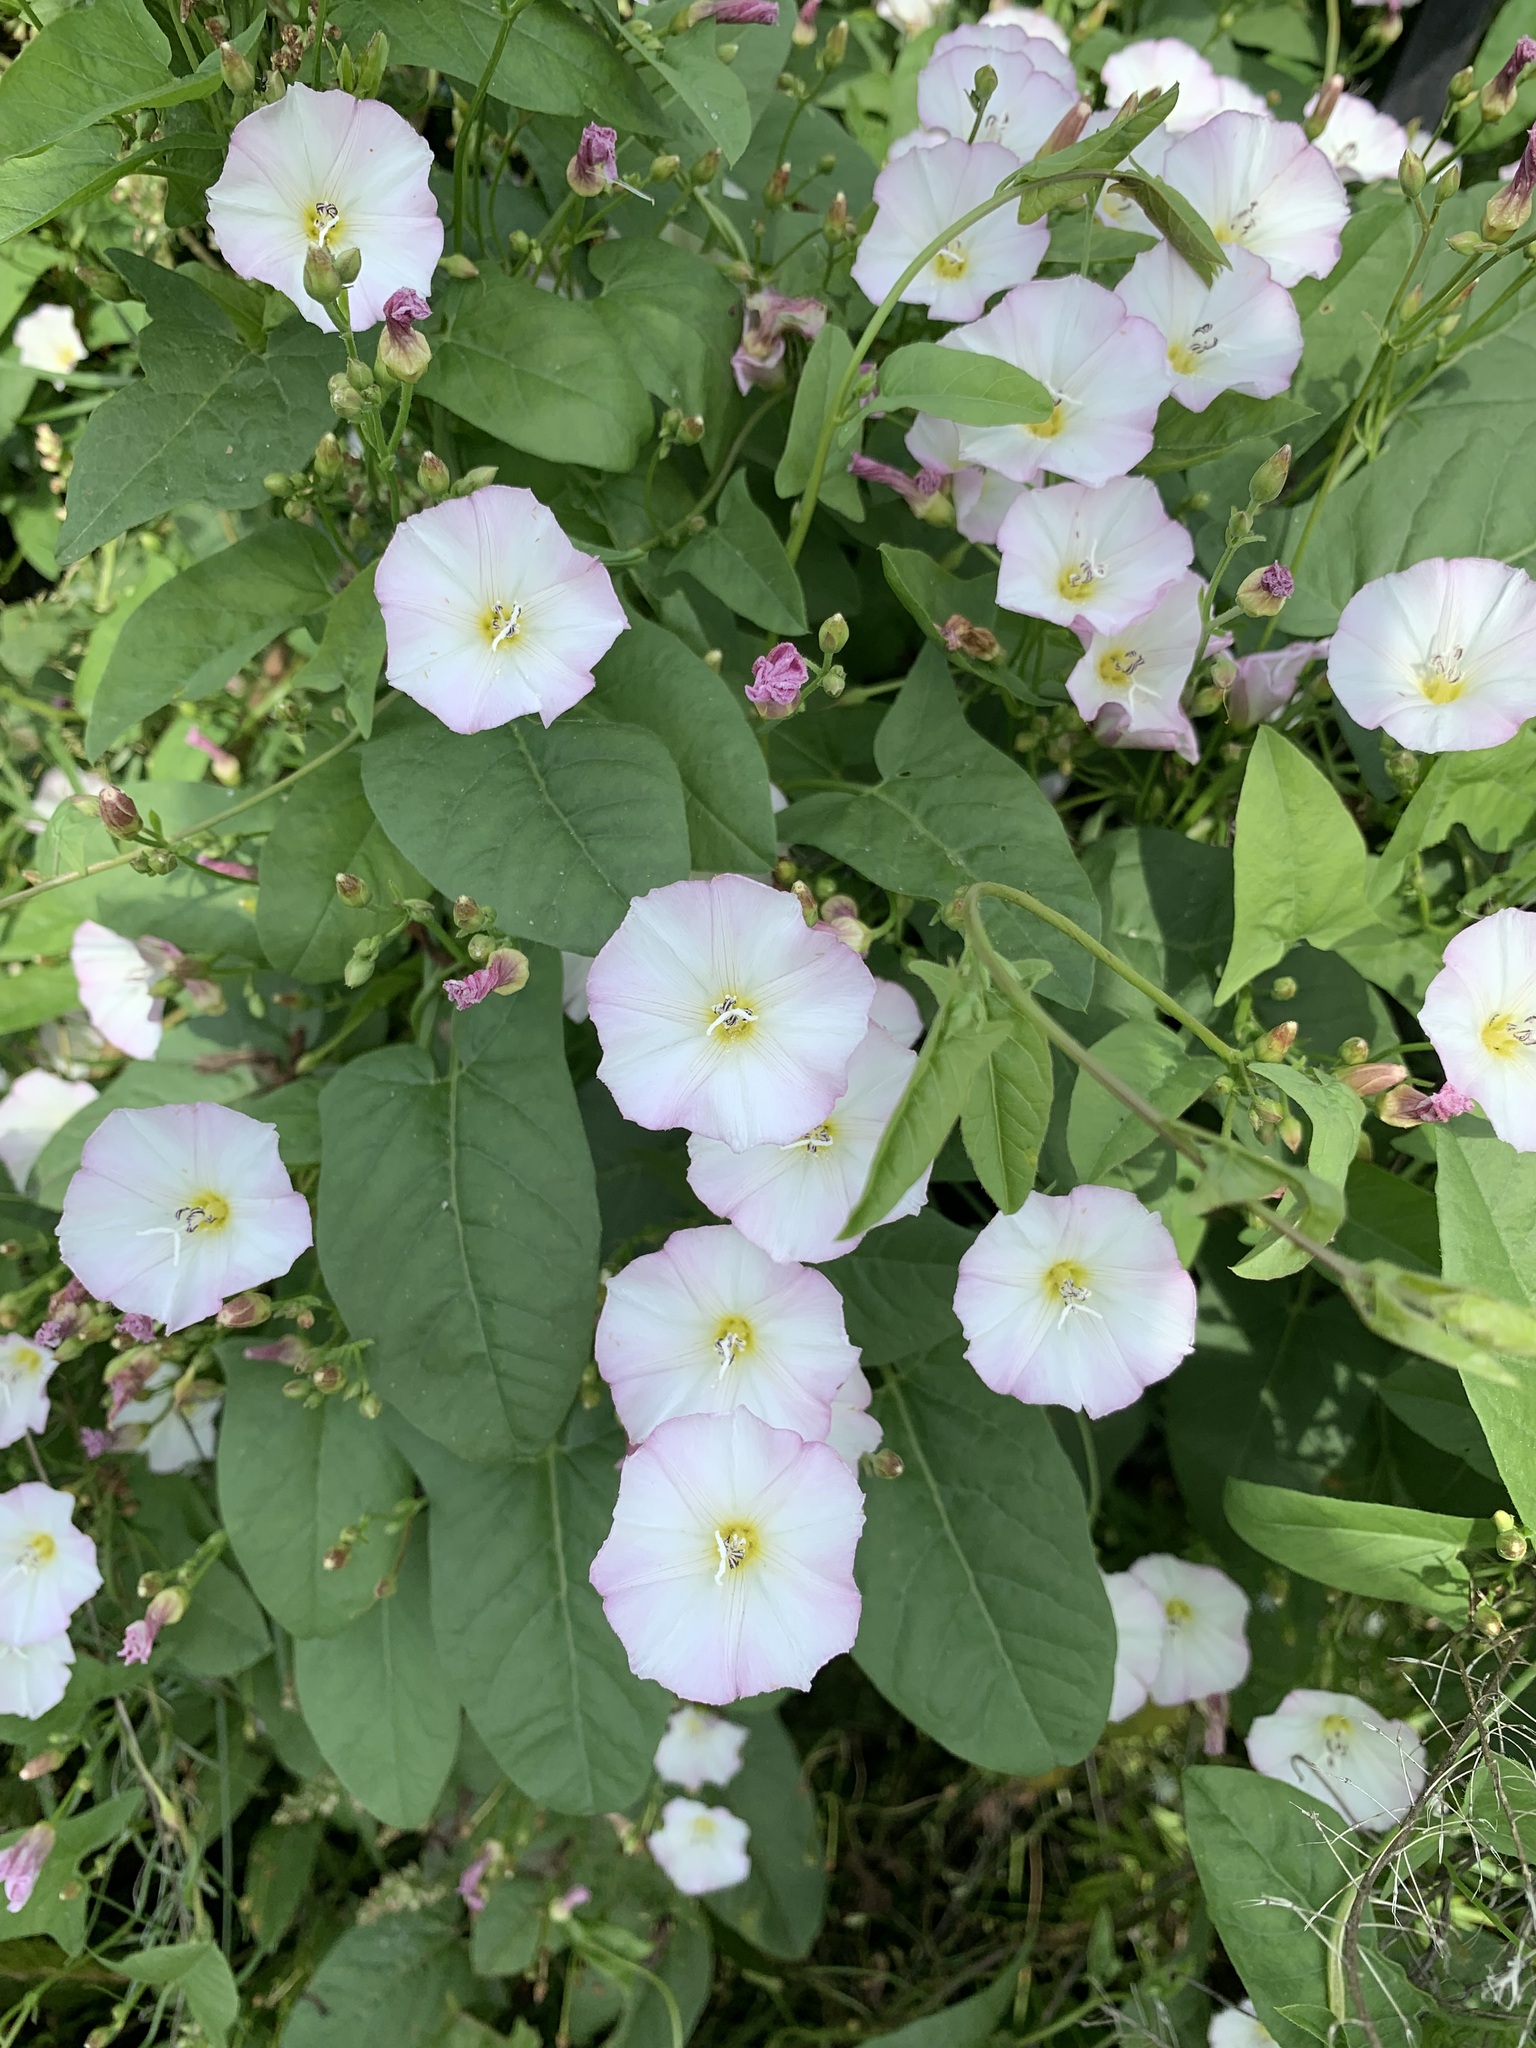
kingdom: Plantae
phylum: Tracheophyta
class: Magnoliopsida
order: Solanales
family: Convolvulaceae
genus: Convolvulus
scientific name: Convolvulus arvensis
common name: Field bindweed
